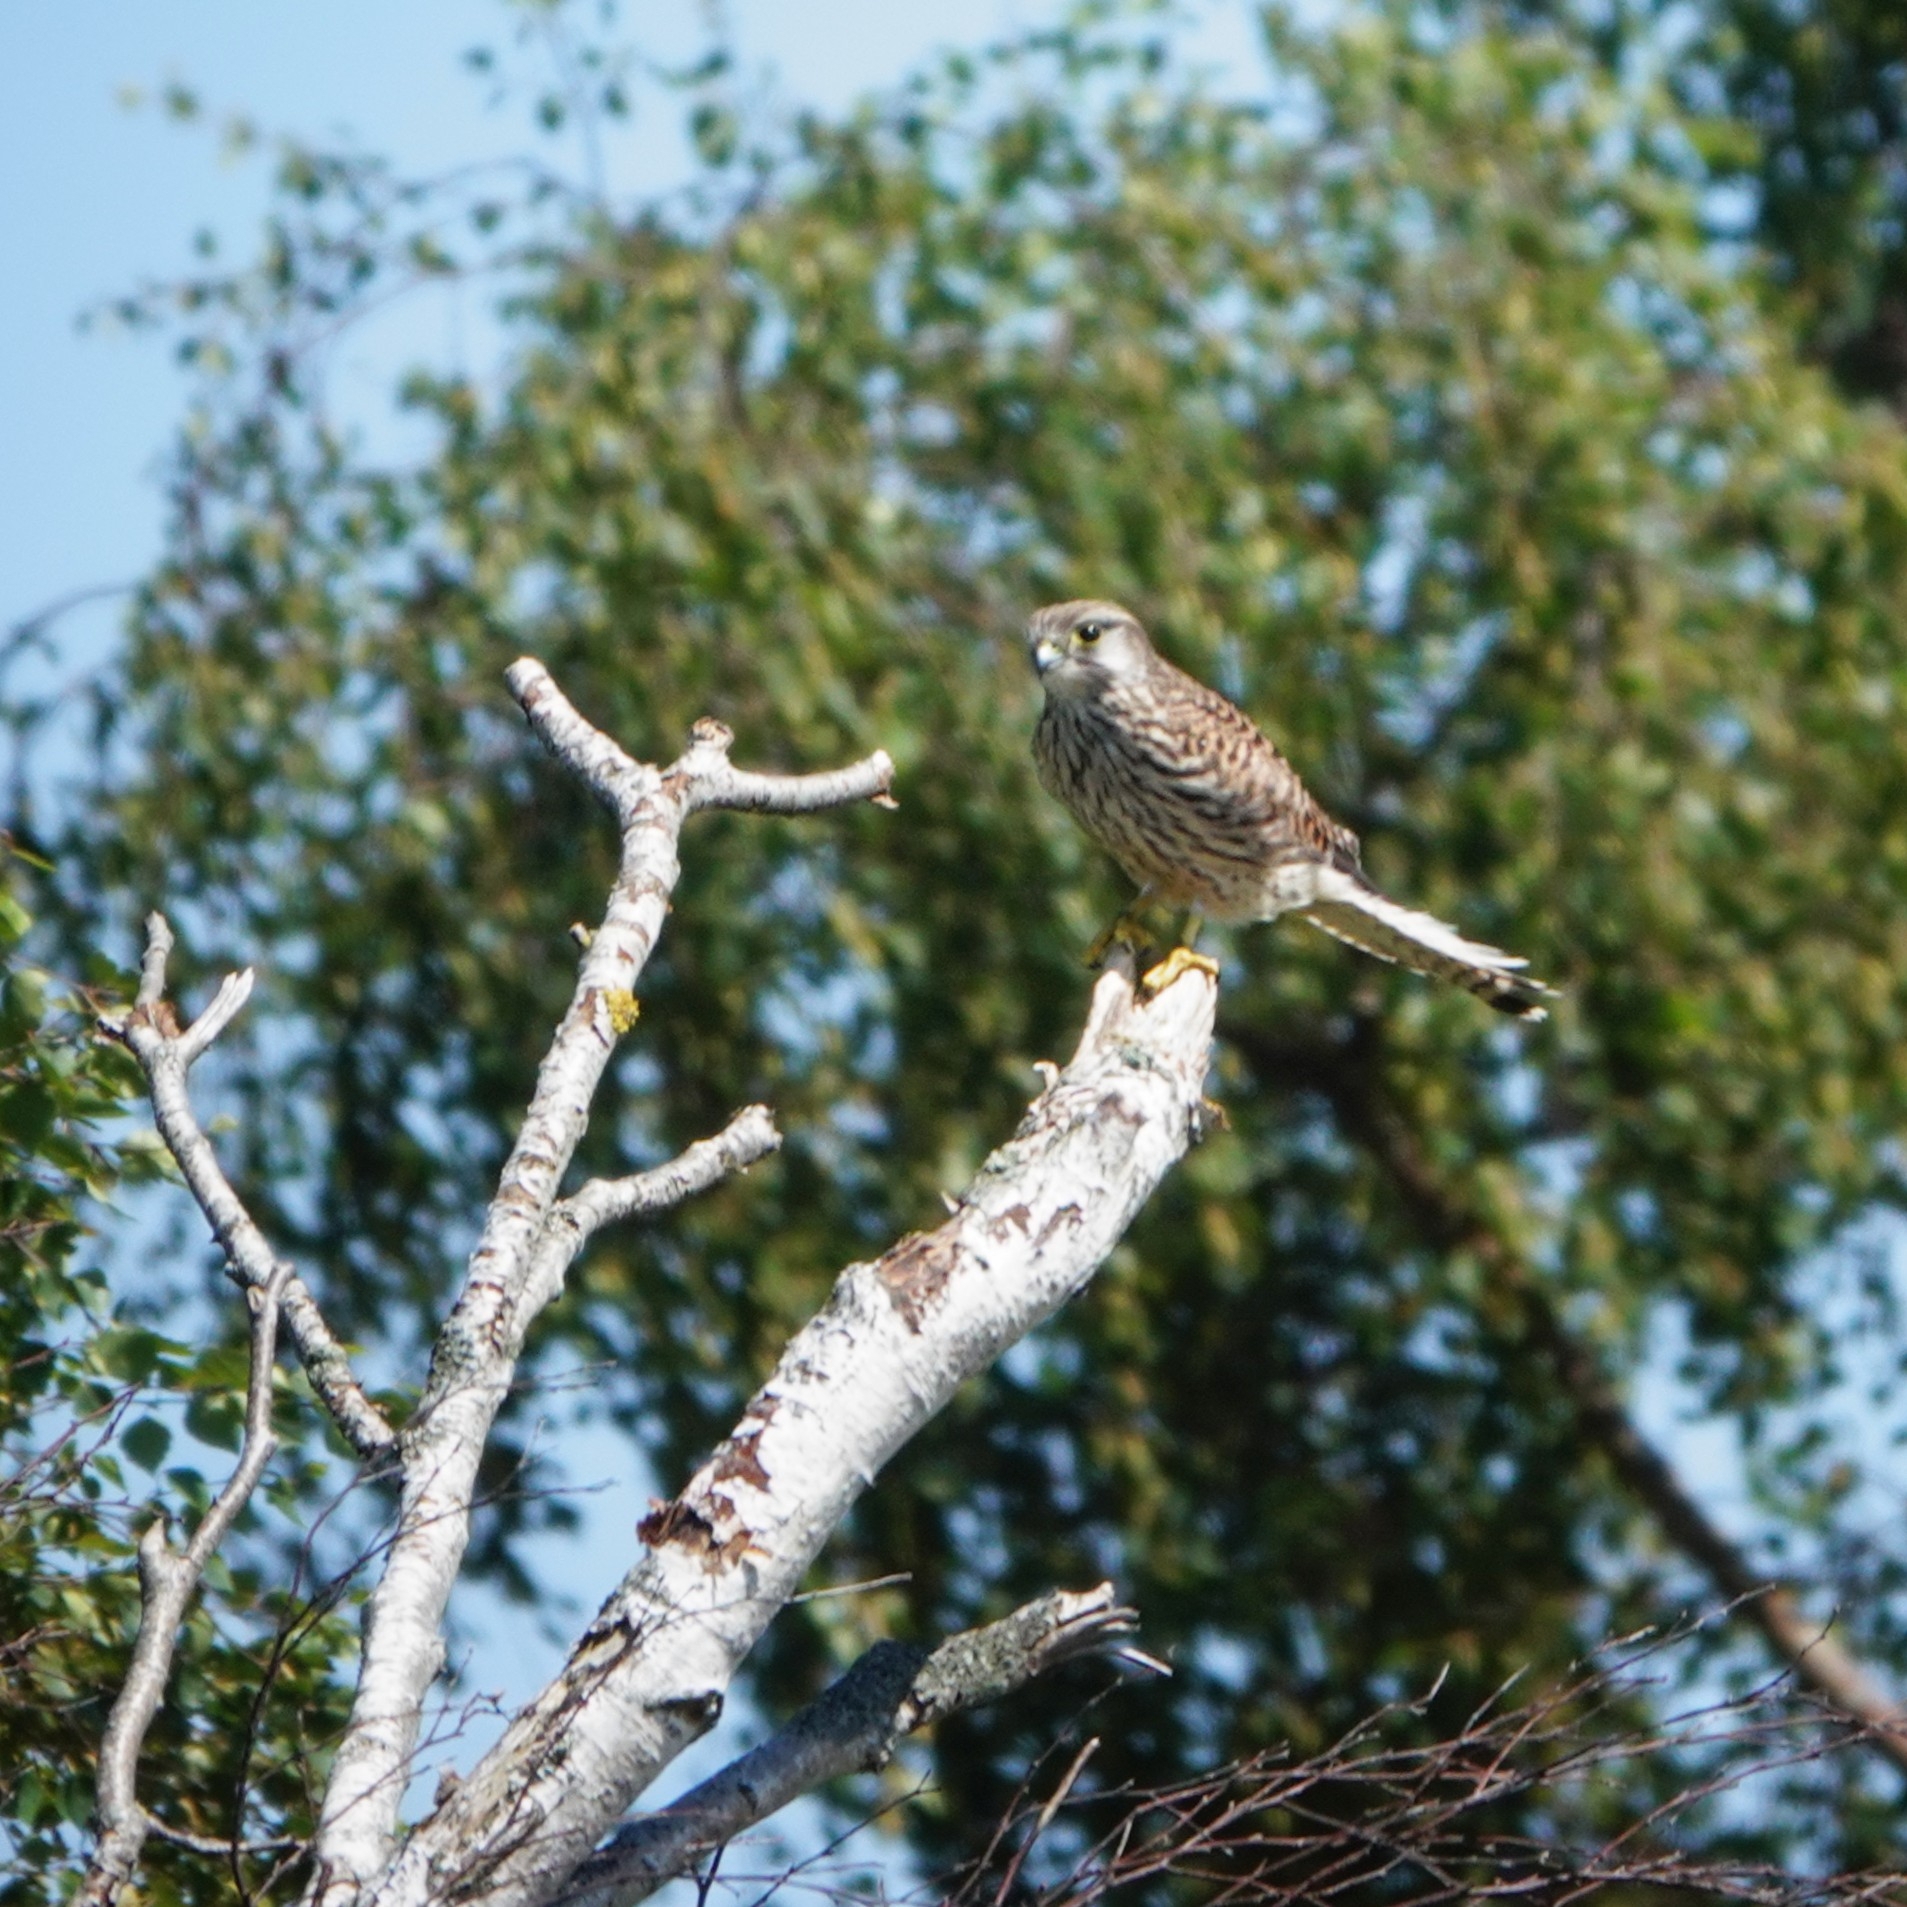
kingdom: Animalia
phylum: Chordata
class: Aves
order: Falconiformes
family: Falconidae
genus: Falco
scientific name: Falco tinnunculus
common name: Common kestrel
